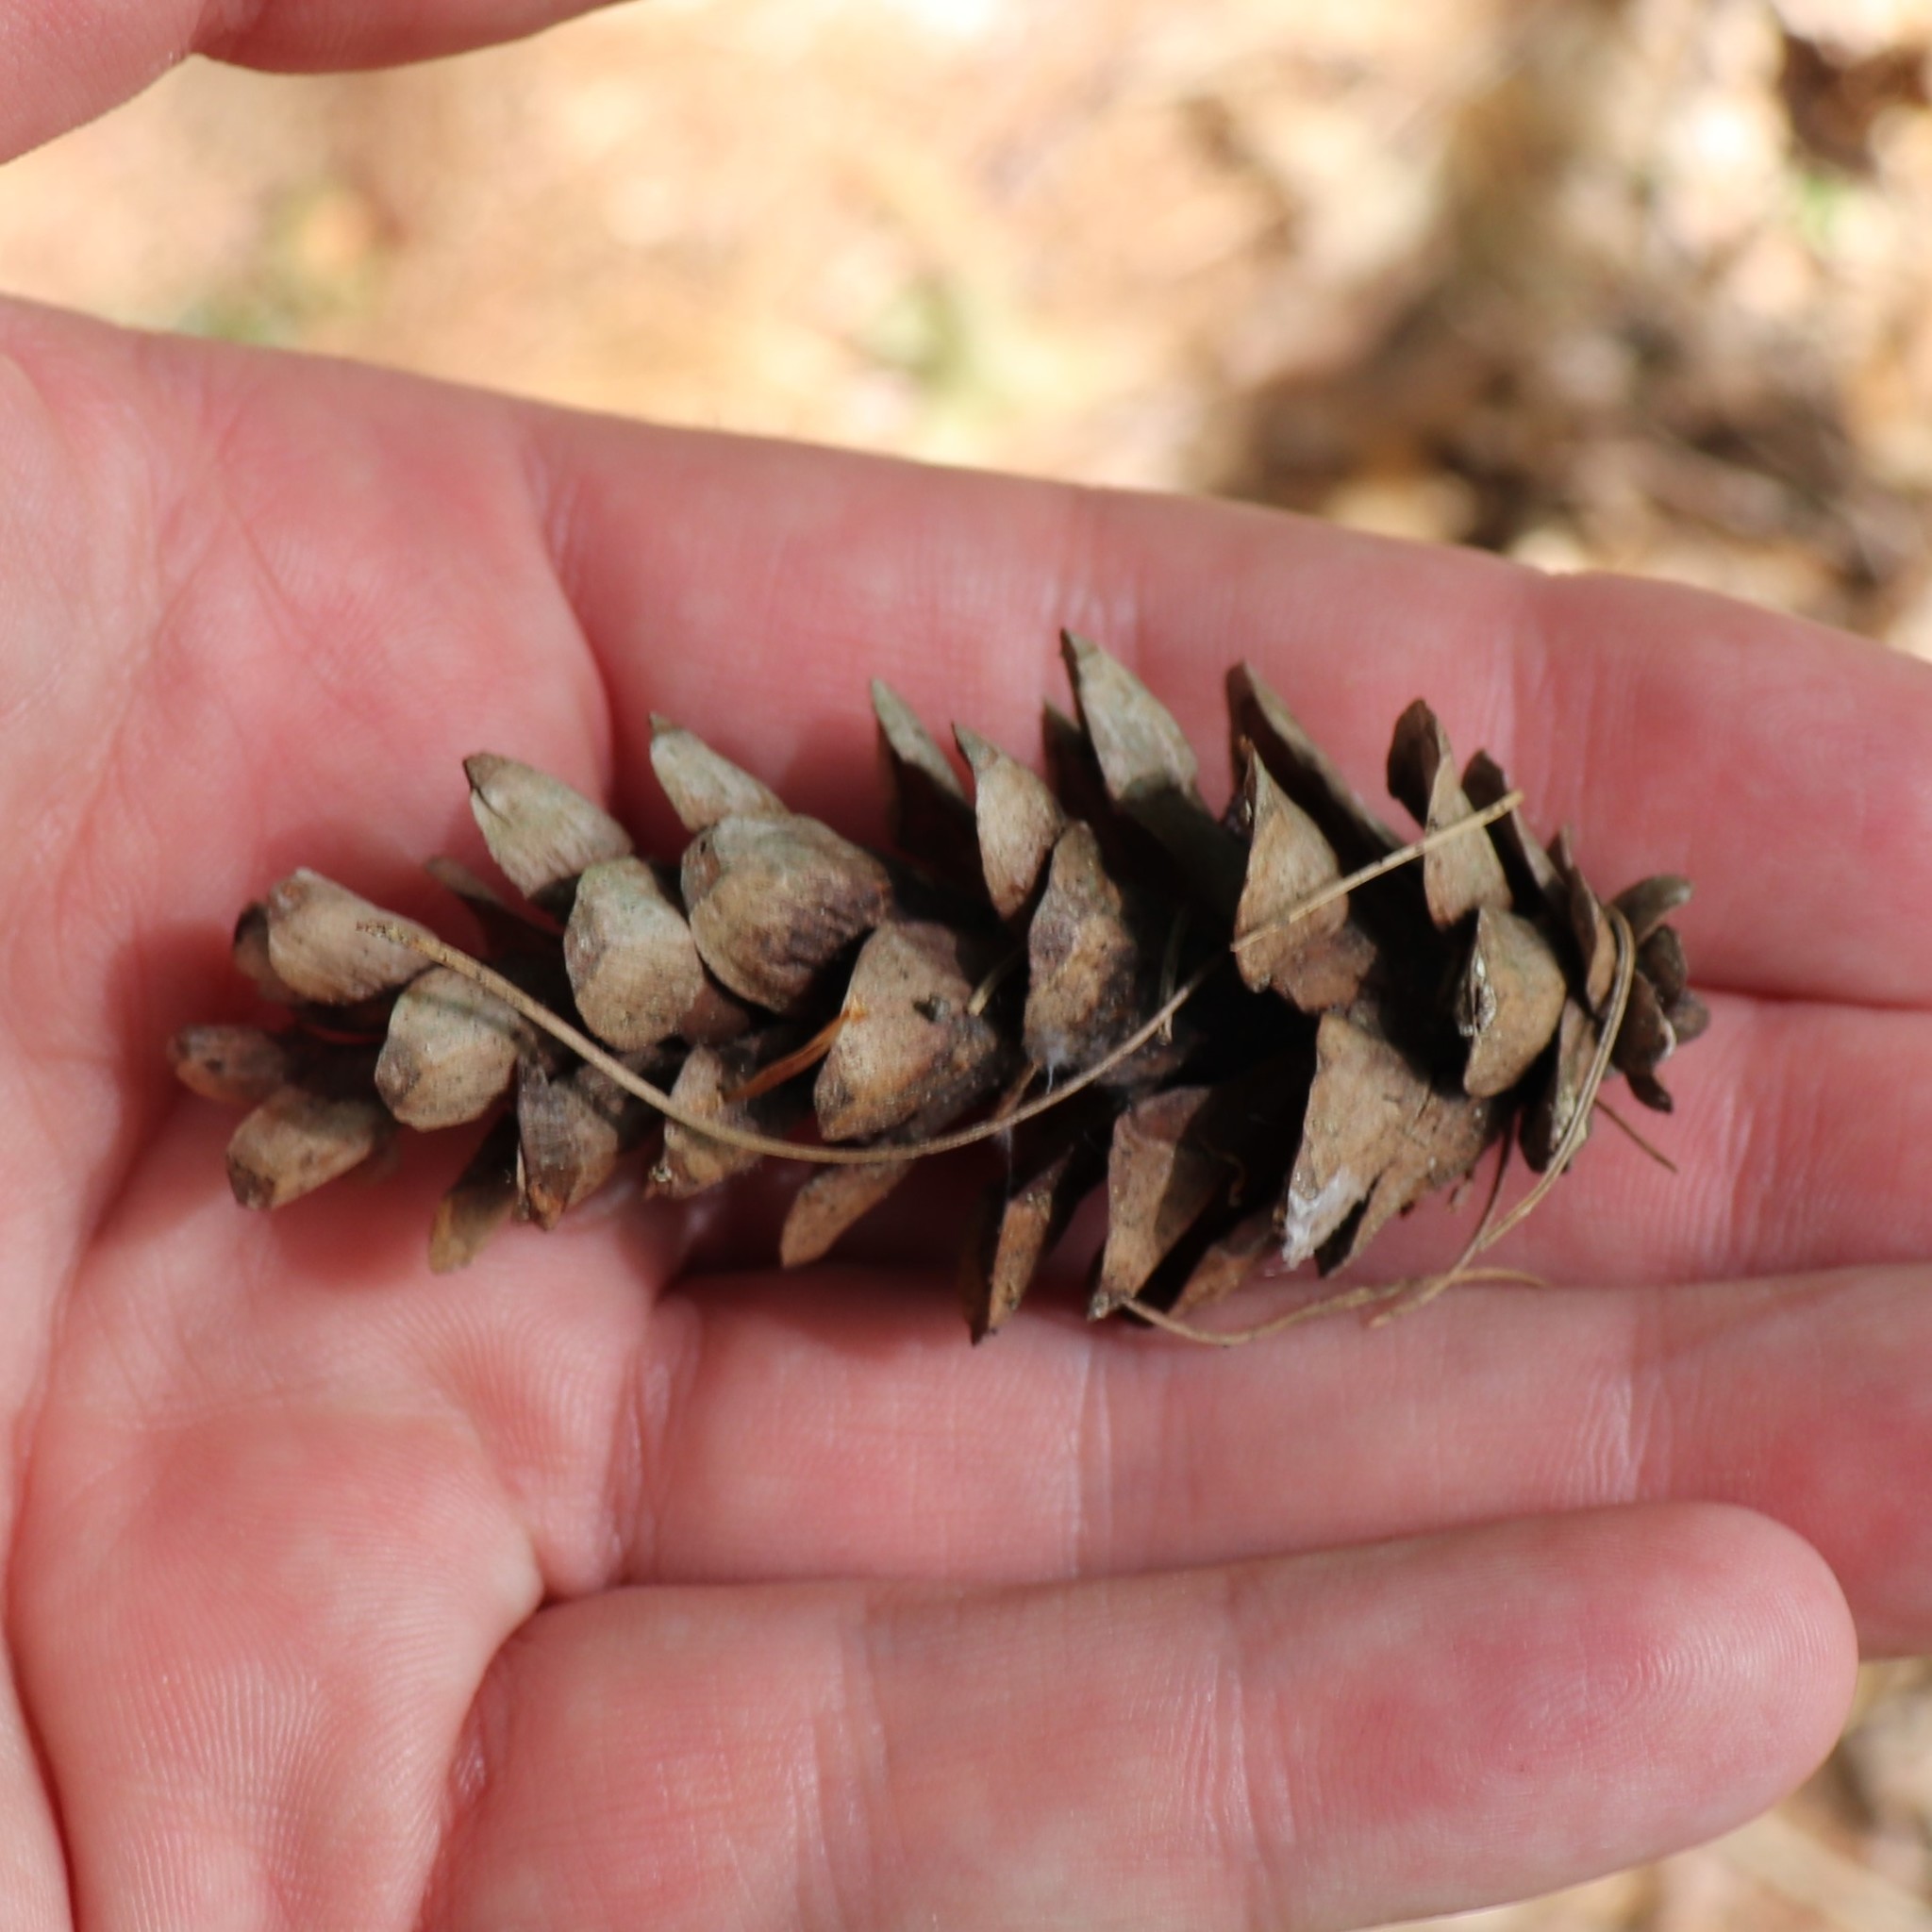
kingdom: Plantae
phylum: Tracheophyta
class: Pinopsida
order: Pinales
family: Pinaceae
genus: Pinus
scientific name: Pinus strobus
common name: Weymouth pine
